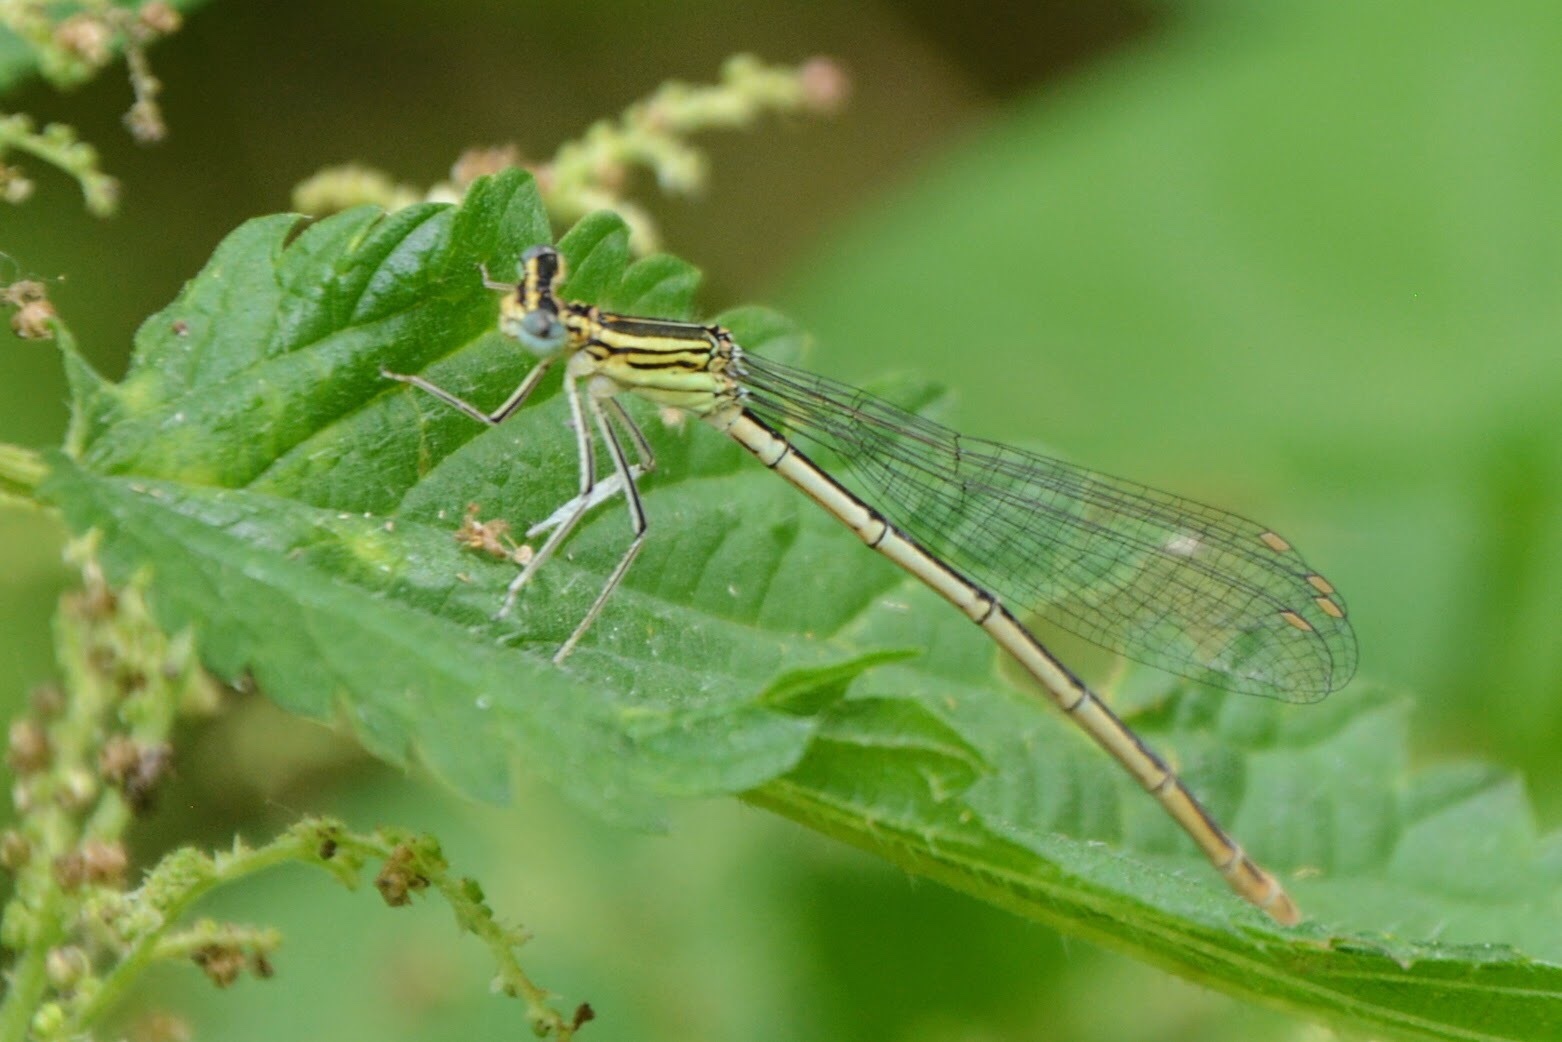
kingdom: Animalia
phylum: Arthropoda
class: Insecta
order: Odonata
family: Platycnemididae
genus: Platycnemis
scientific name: Platycnemis pennipes
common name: White-legged damselfly
